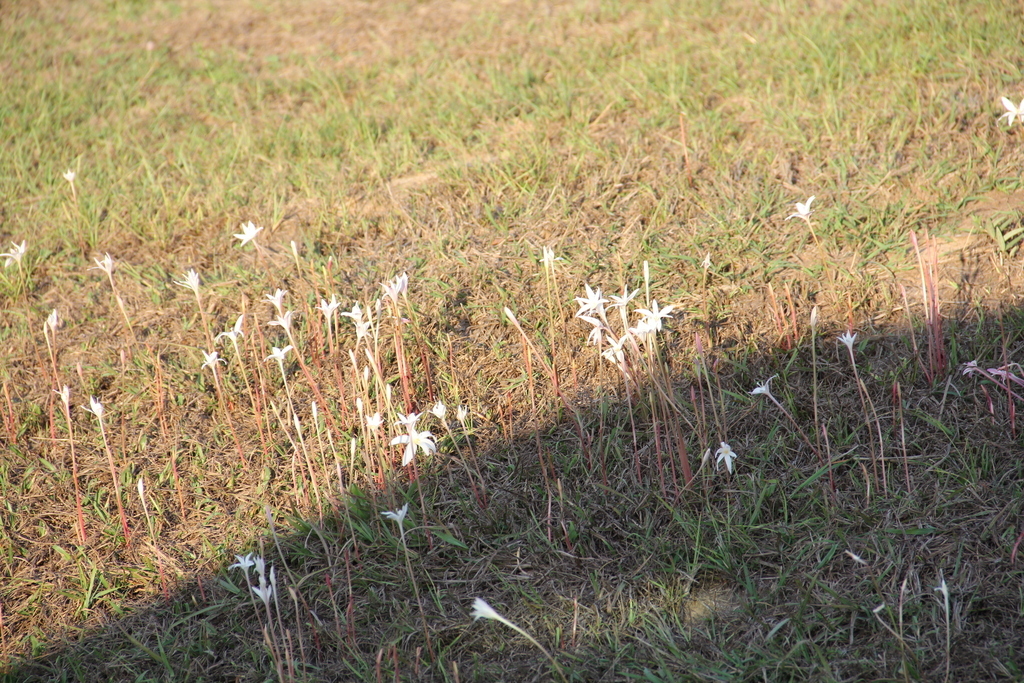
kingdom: Plantae
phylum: Tracheophyta
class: Liliopsida
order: Asparagales
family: Amaryllidaceae
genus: Zephyranthes
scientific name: Zephyranthes traubii
